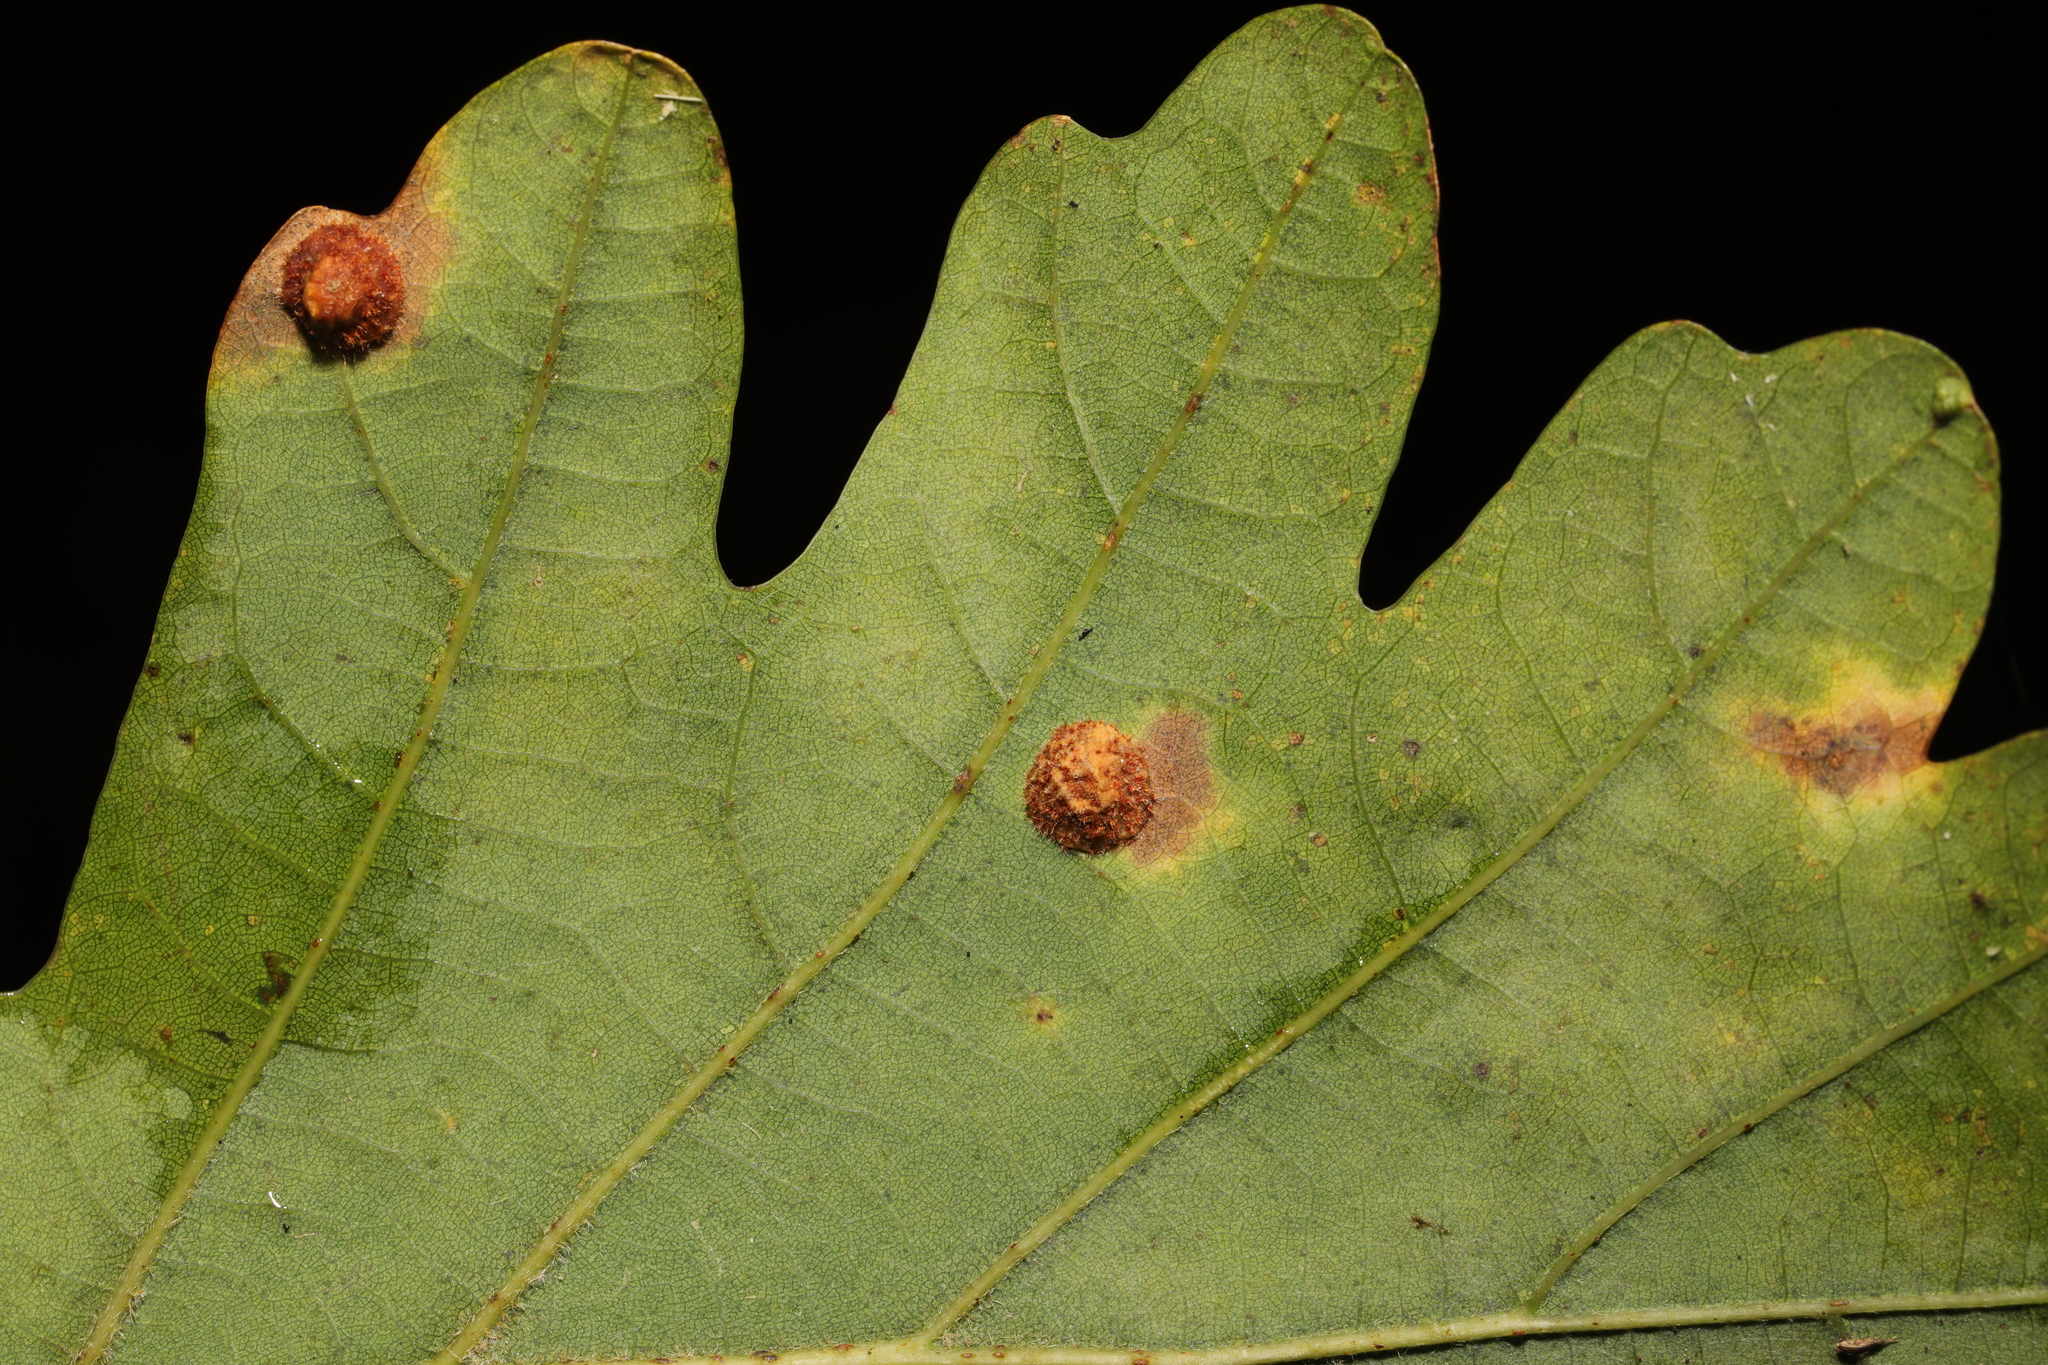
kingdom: Animalia
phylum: Arthropoda
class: Insecta
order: Hymenoptera
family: Cynipidae
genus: Neuroterus
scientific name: Neuroterus quercusbaccarum
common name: Common spangle gall
